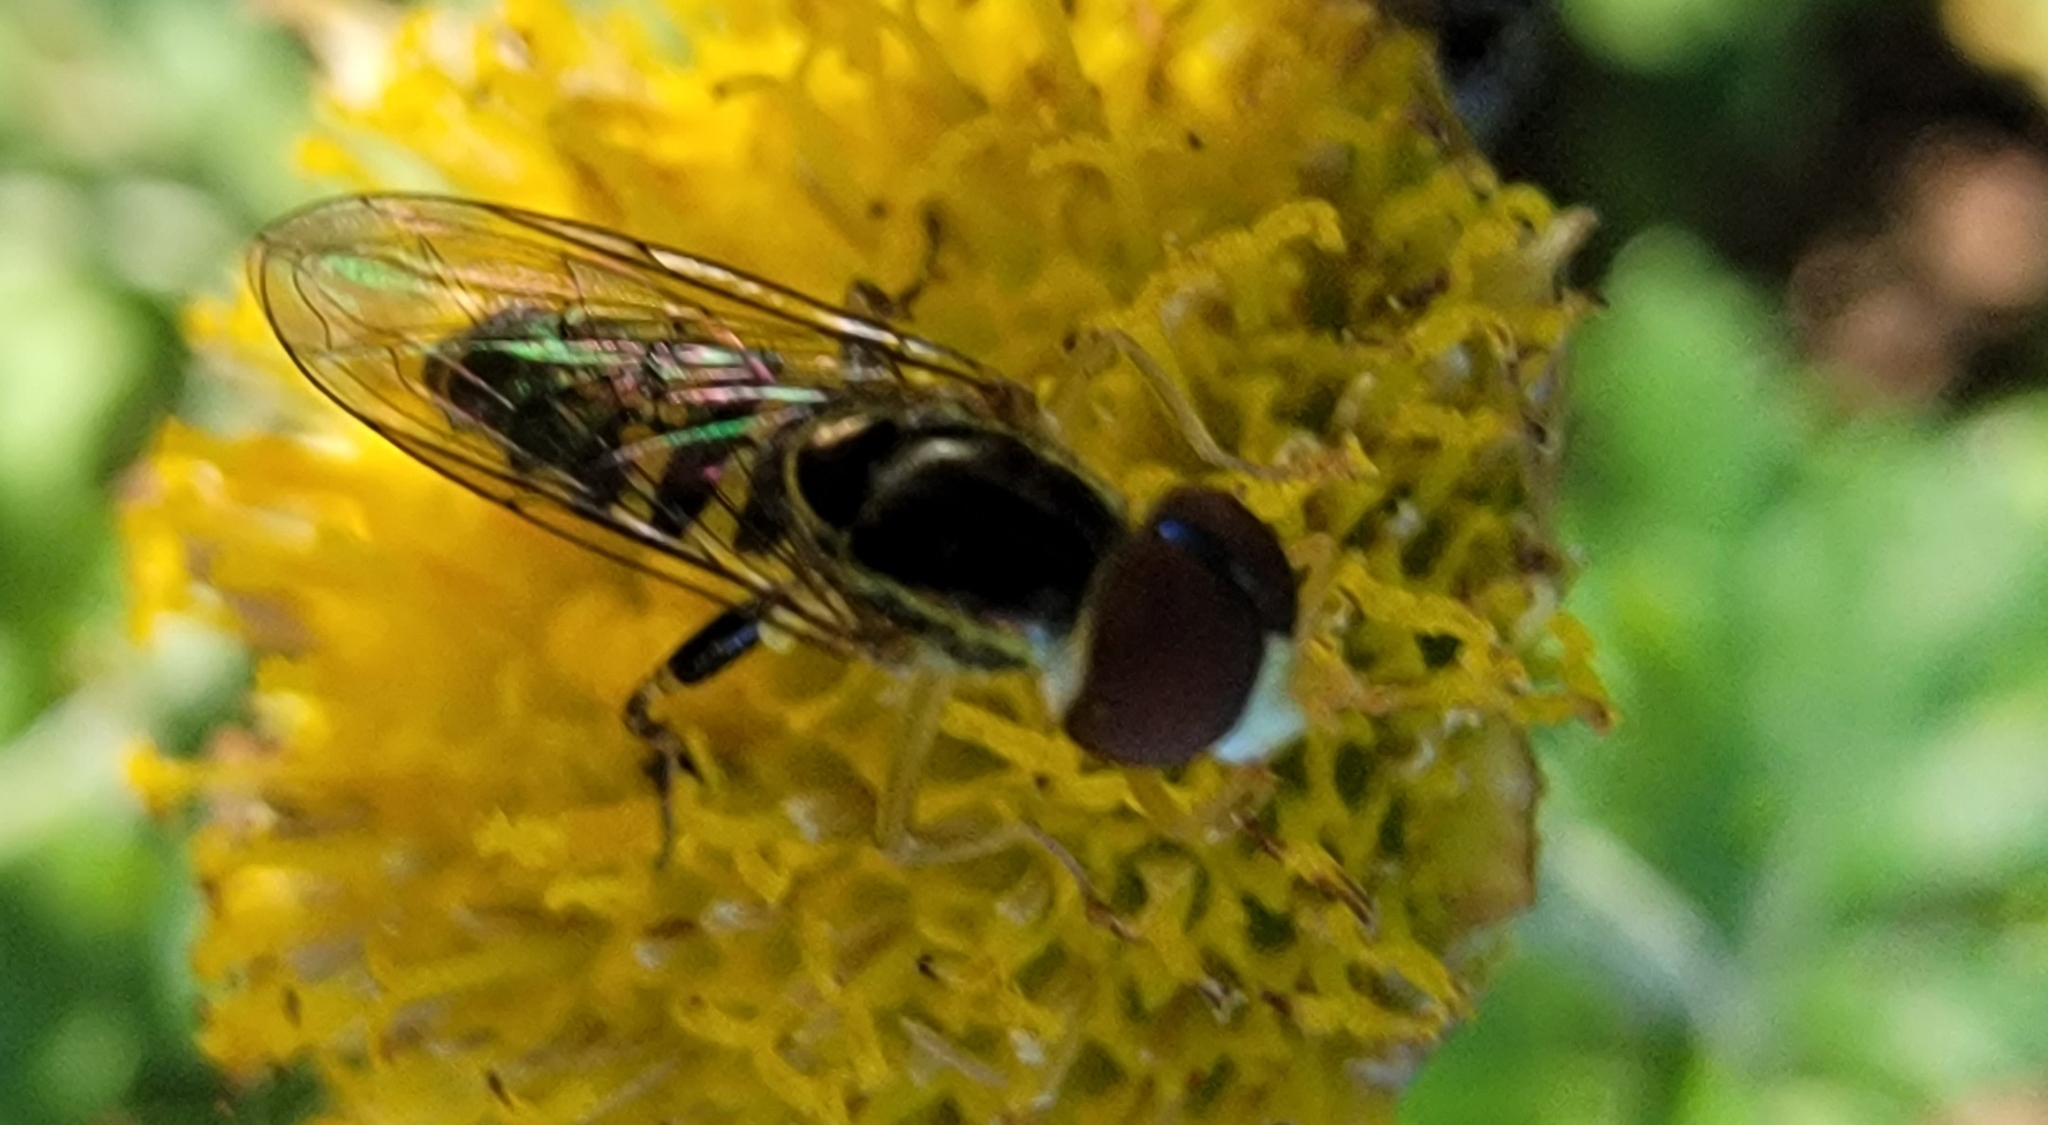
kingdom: Animalia
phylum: Arthropoda
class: Insecta
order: Diptera
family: Syrphidae
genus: Toxomerus
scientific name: Toxomerus geminatus
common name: Eastern calligrapher
